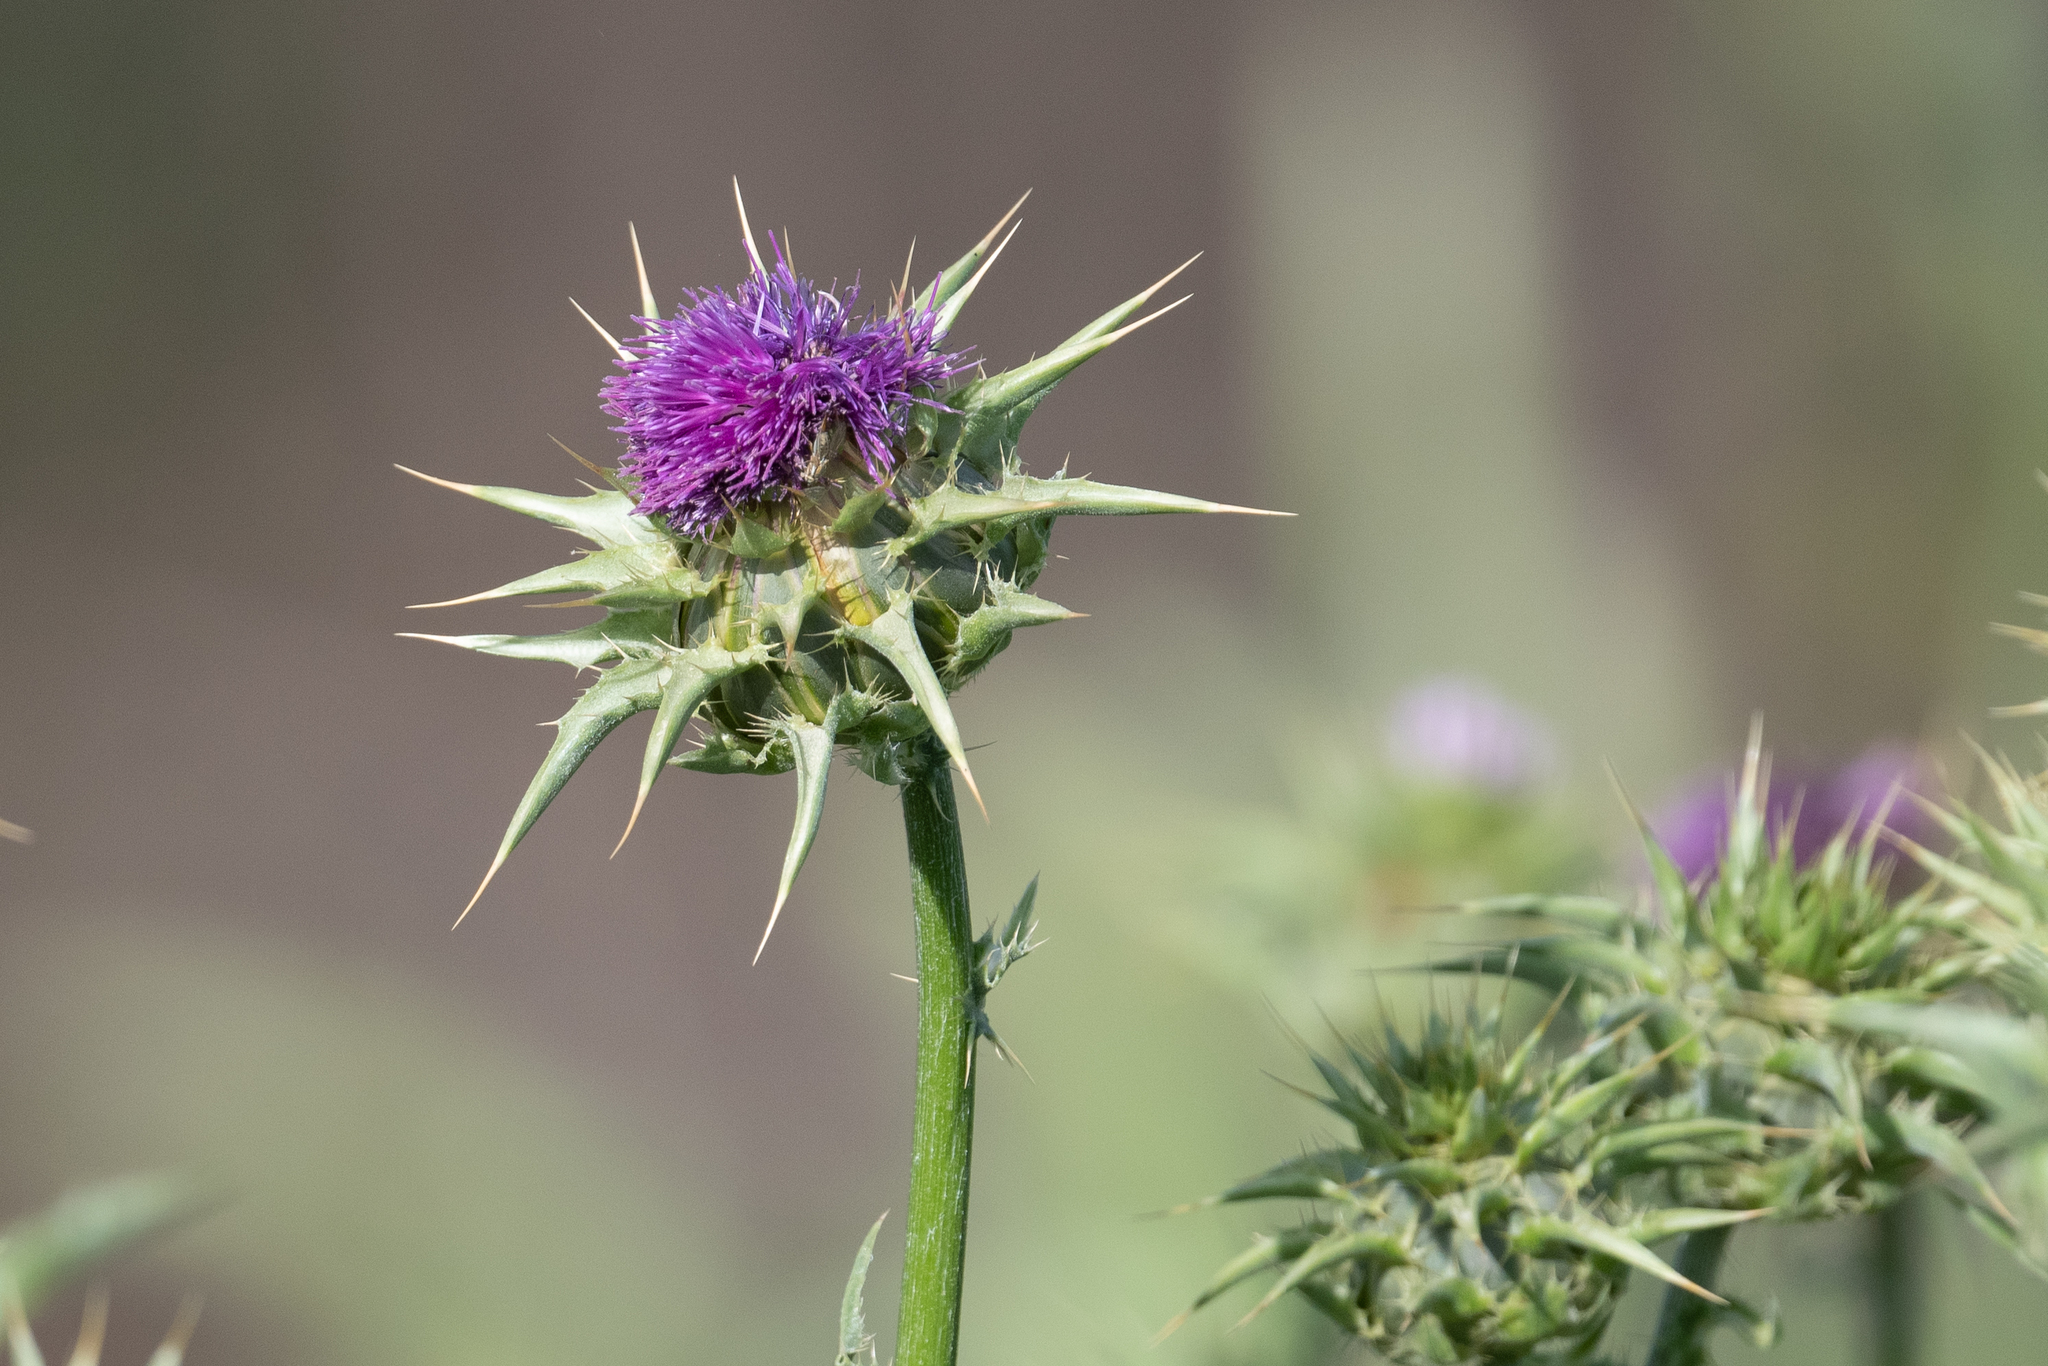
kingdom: Plantae
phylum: Tracheophyta
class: Magnoliopsida
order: Asterales
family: Asteraceae
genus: Silybum
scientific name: Silybum marianum
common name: Milk thistle
